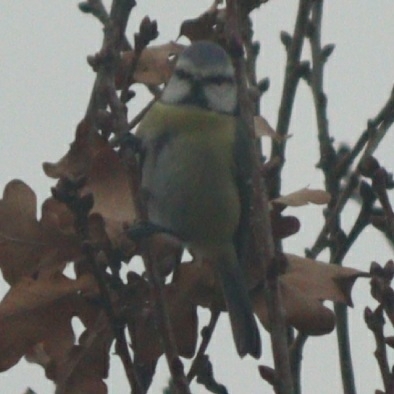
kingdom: Animalia
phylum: Chordata
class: Aves
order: Passeriformes
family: Paridae
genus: Cyanistes
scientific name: Cyanistes caeruleus
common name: Eurasian blue tit
